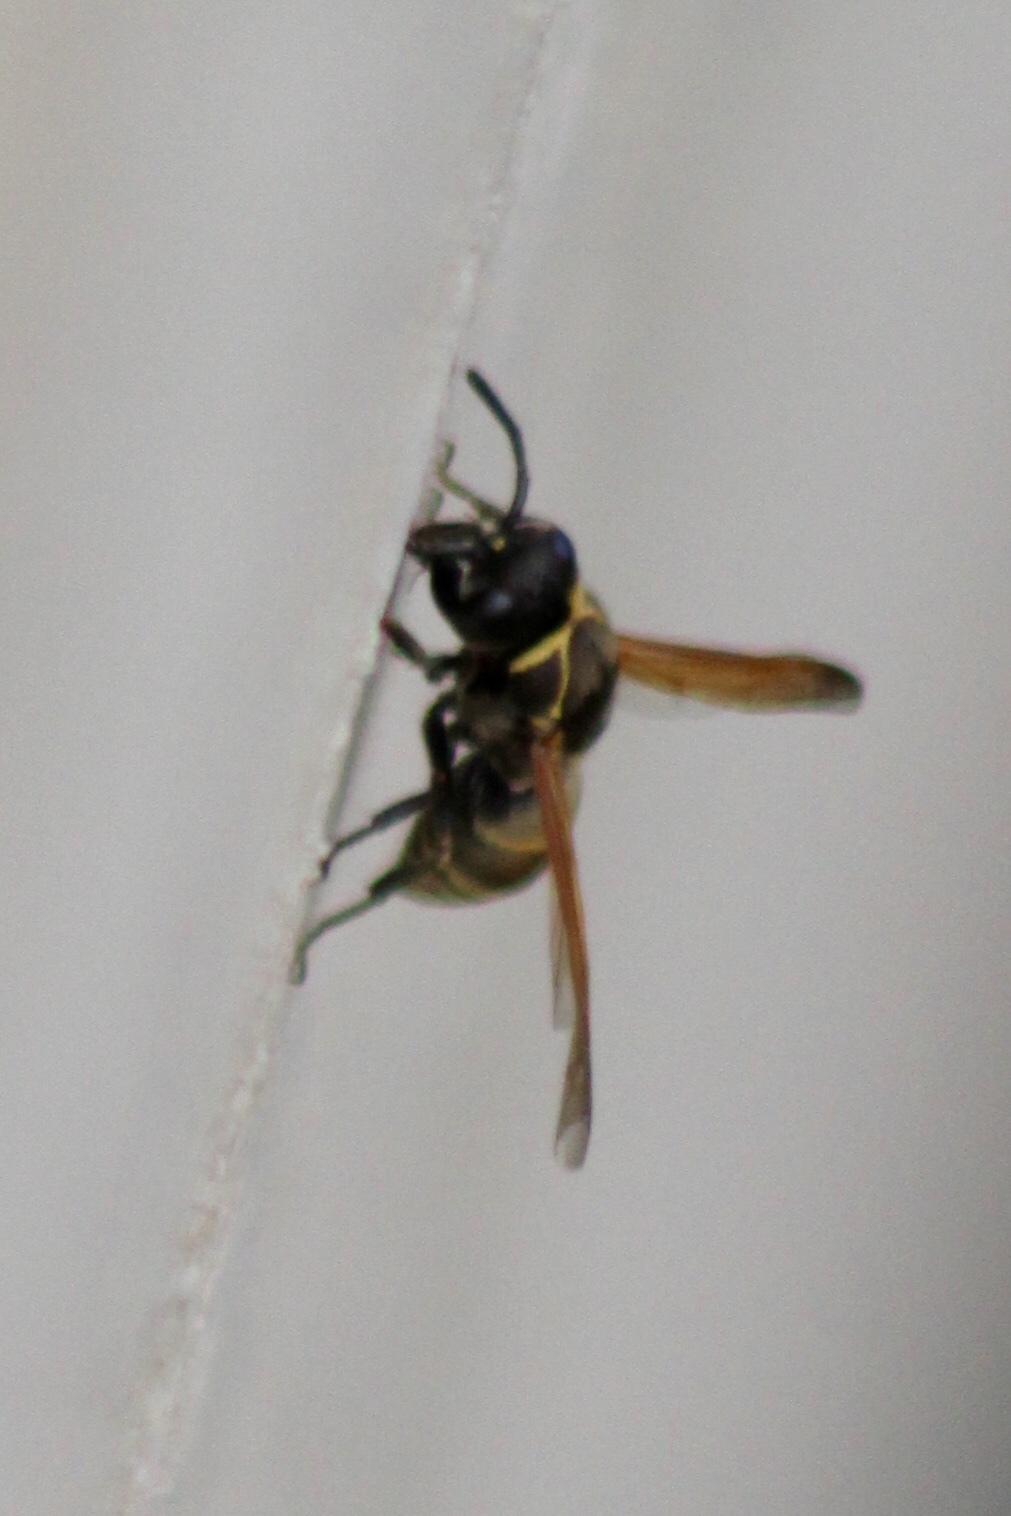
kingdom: Animalia
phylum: Arthropoda
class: Insecta
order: Hymenoptera
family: Eumenidae
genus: Pachodynerus
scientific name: Pachodynerus guadulpensis
